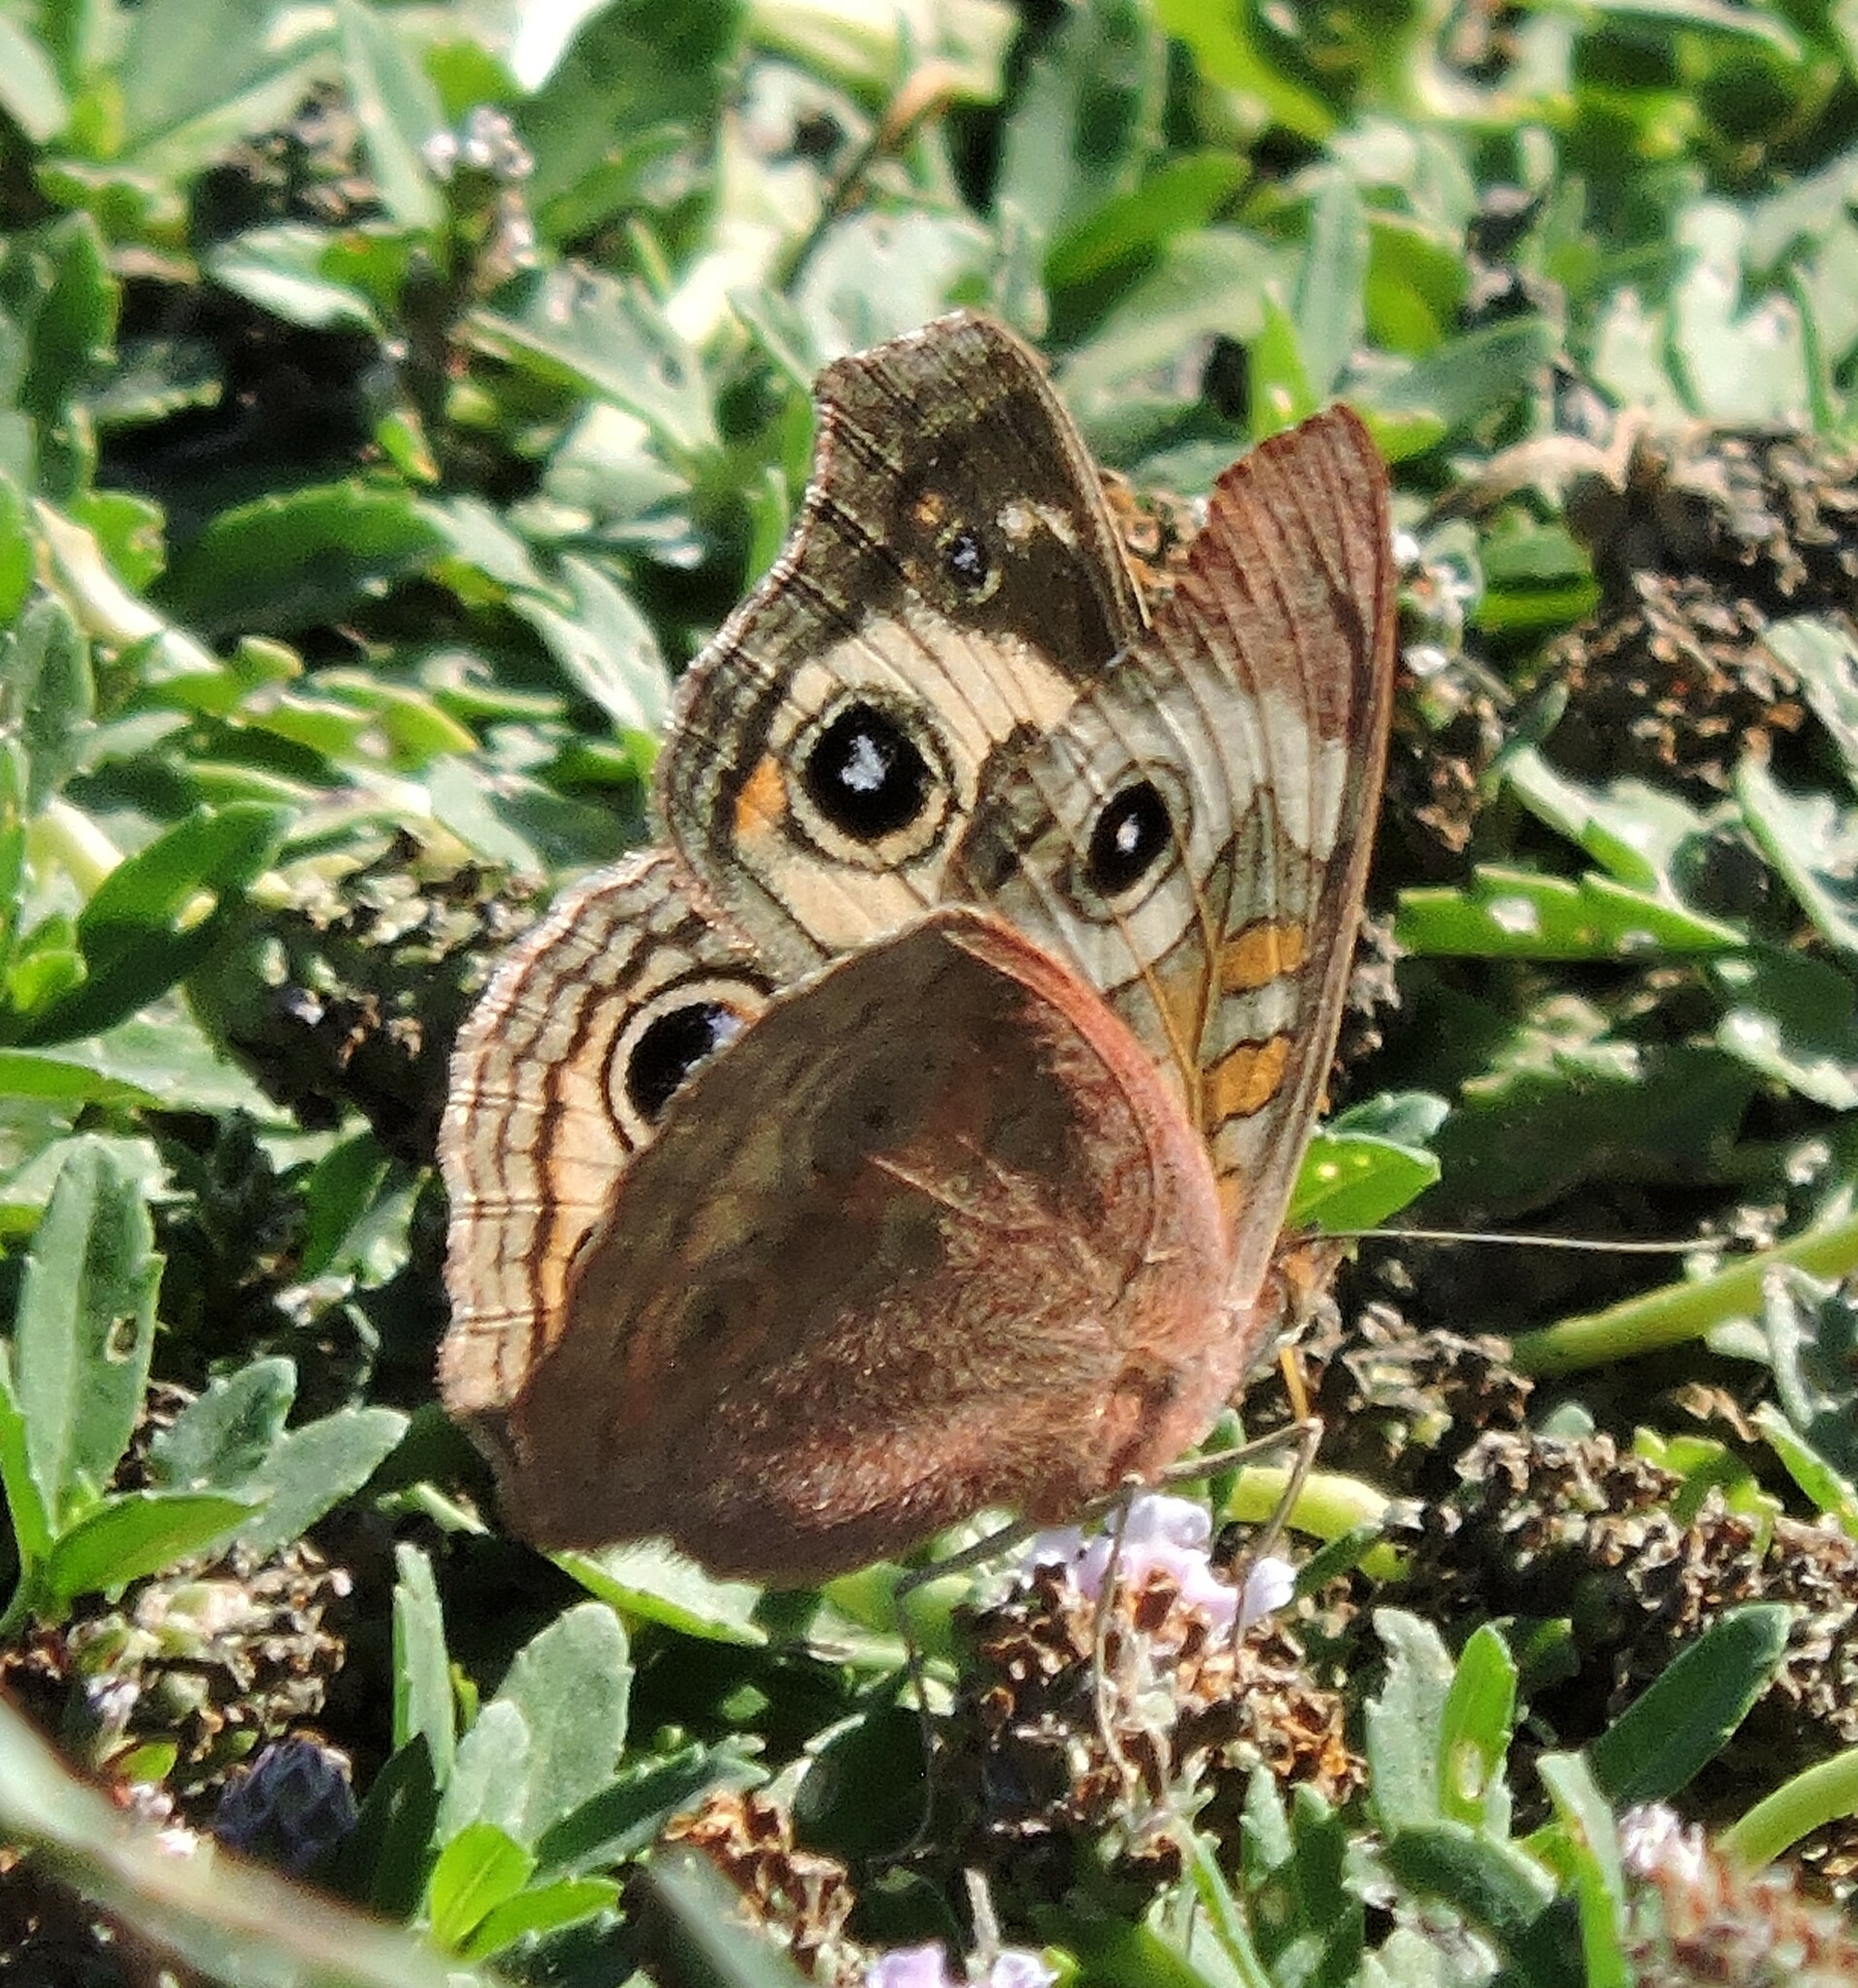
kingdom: Animalia
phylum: Arthropoda
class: Insecta
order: Lepidoptera
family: Nymphalidae
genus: Junonia
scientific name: Junonia grisea
